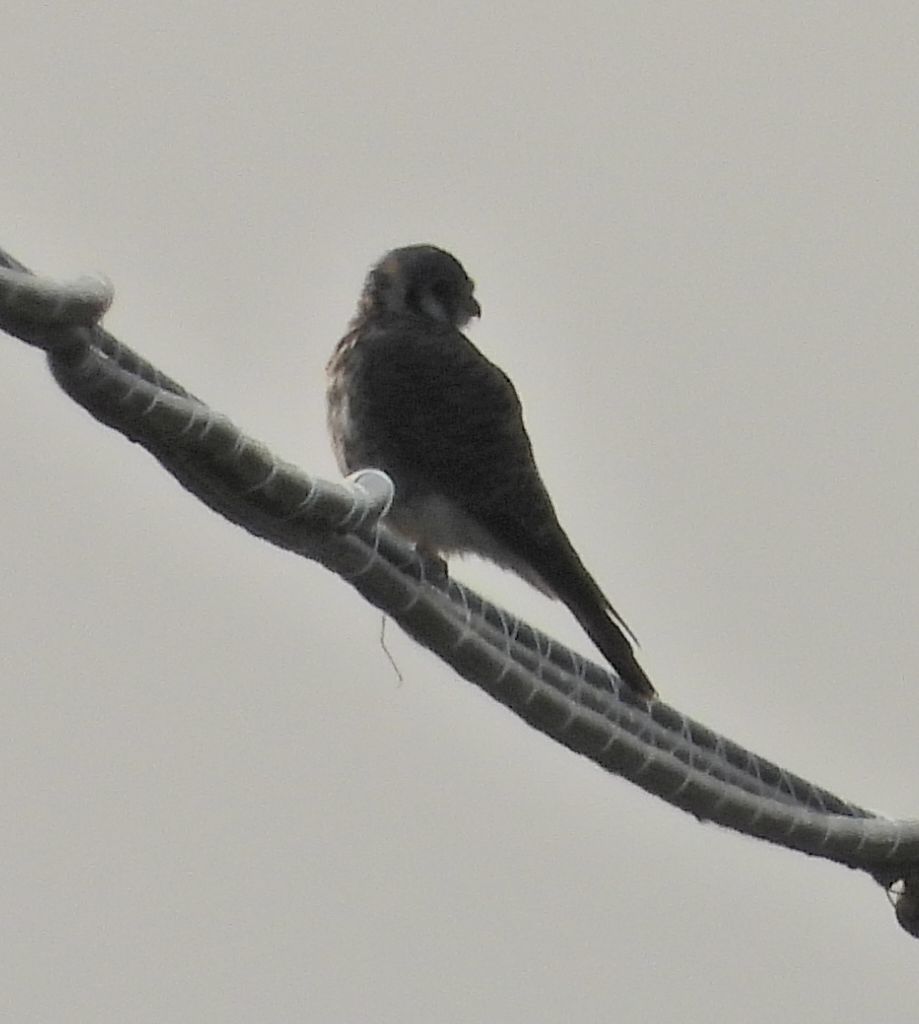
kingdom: Animalia
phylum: Chordata
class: Aves
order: Falconiformes
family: Falconidae
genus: Falco
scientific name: Falco sparverius
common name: American kestrel
